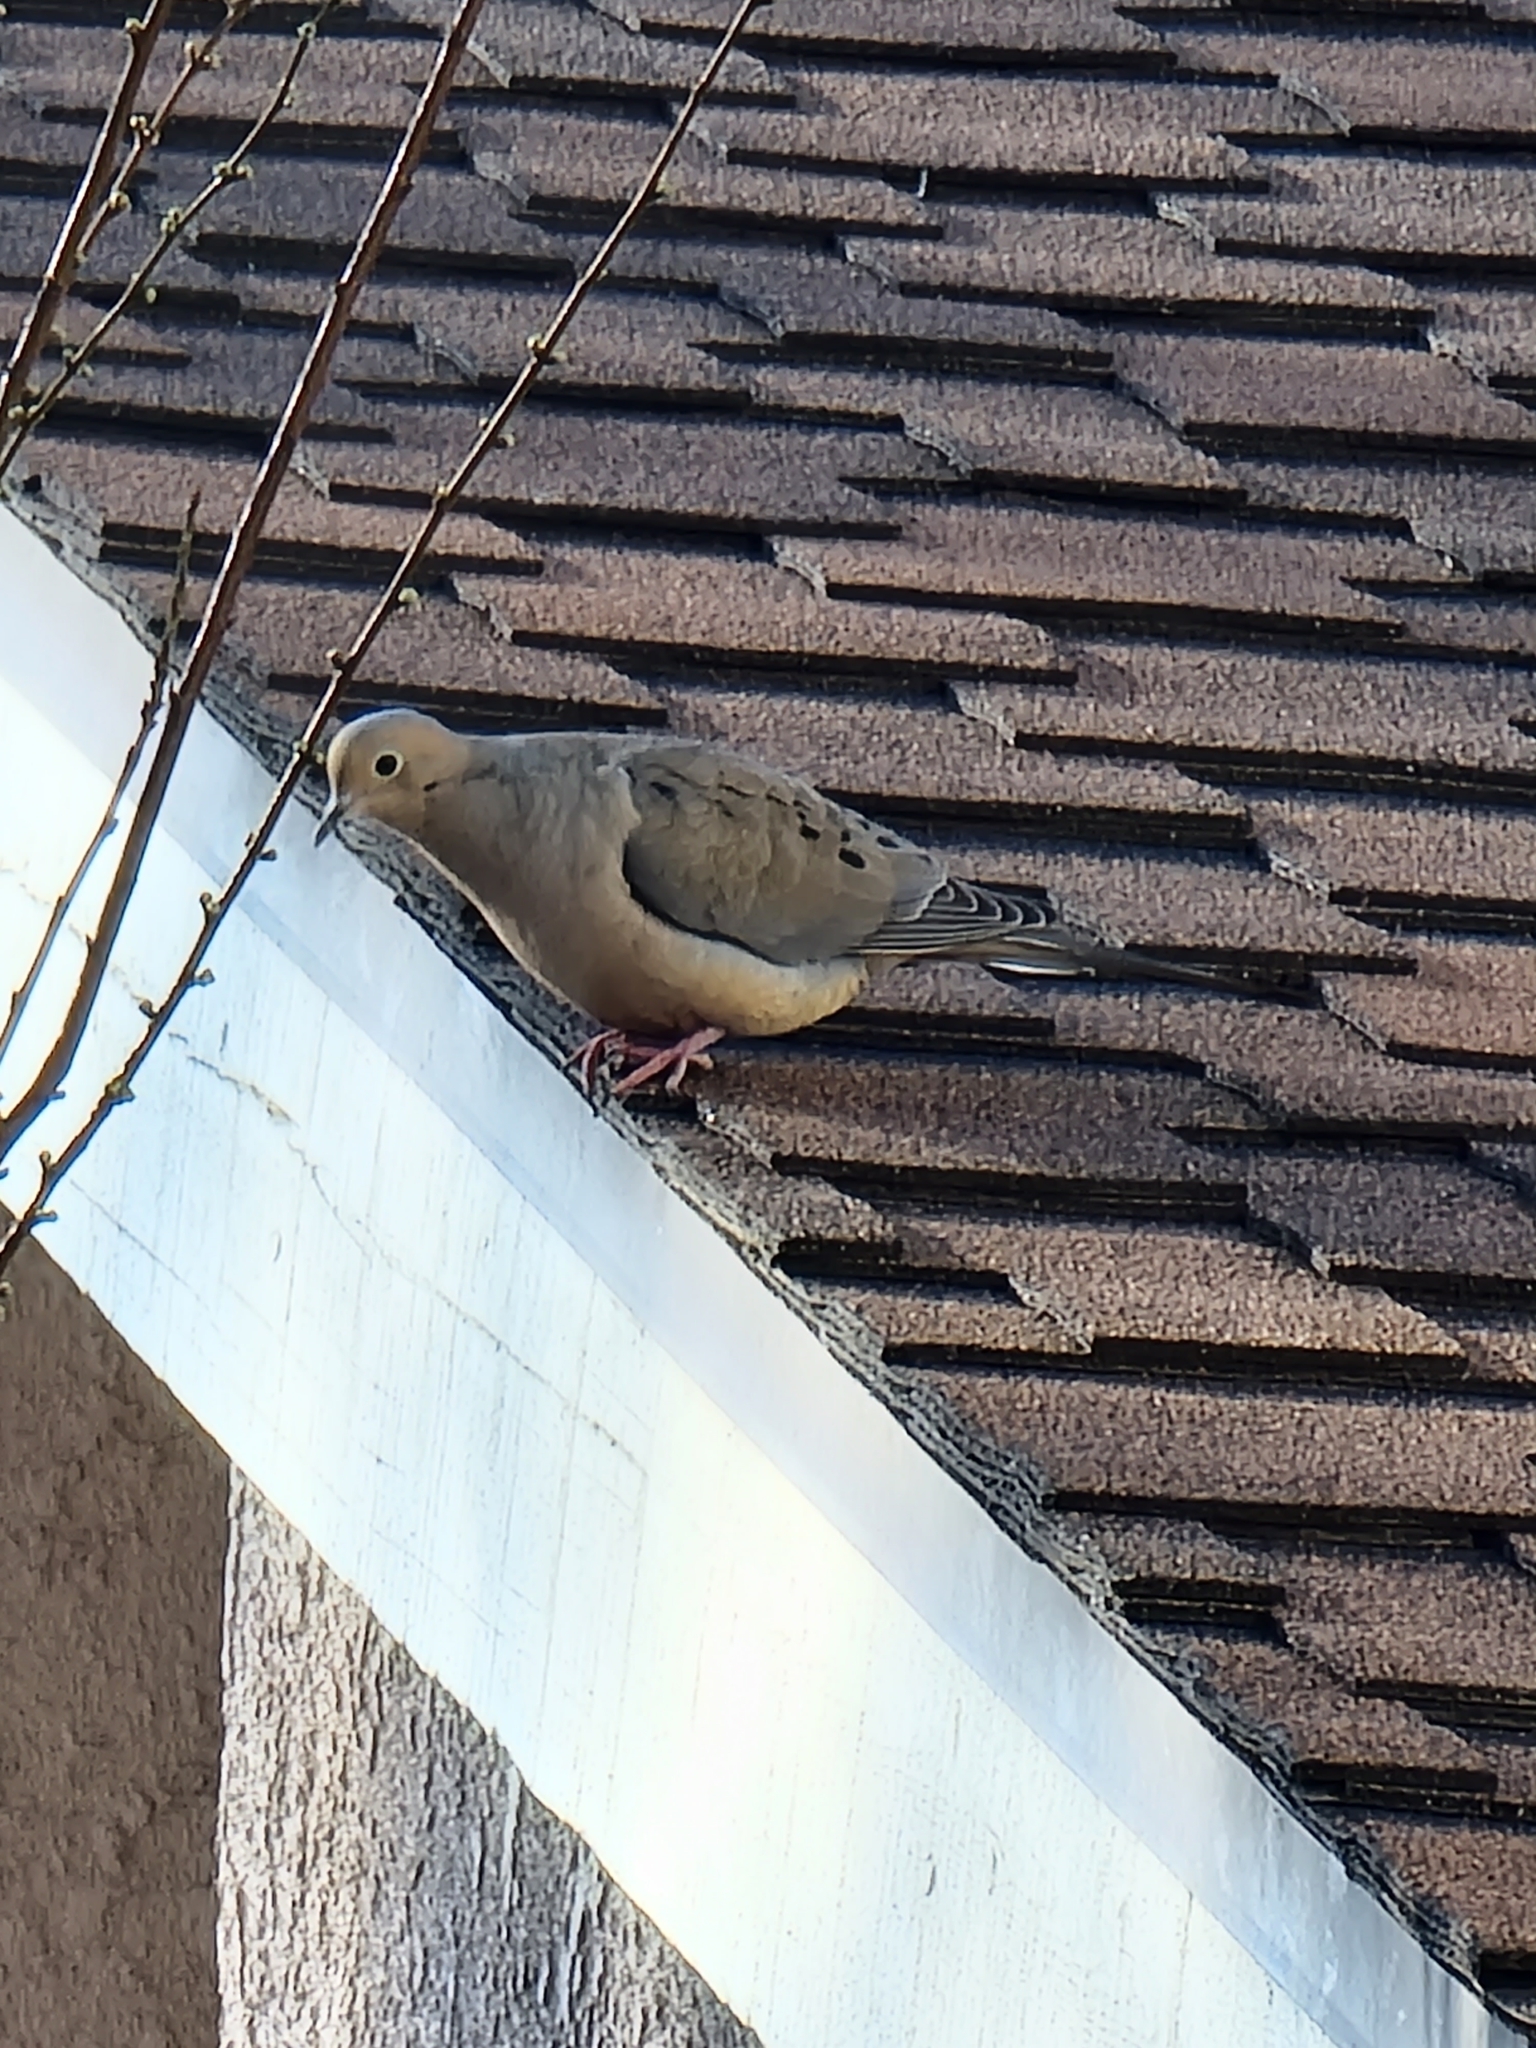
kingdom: Animalia
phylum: Chordata
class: Aves
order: Columbiformes
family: Columbidae
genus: Zenaida
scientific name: Zenaida macroura
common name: Mourning dove
